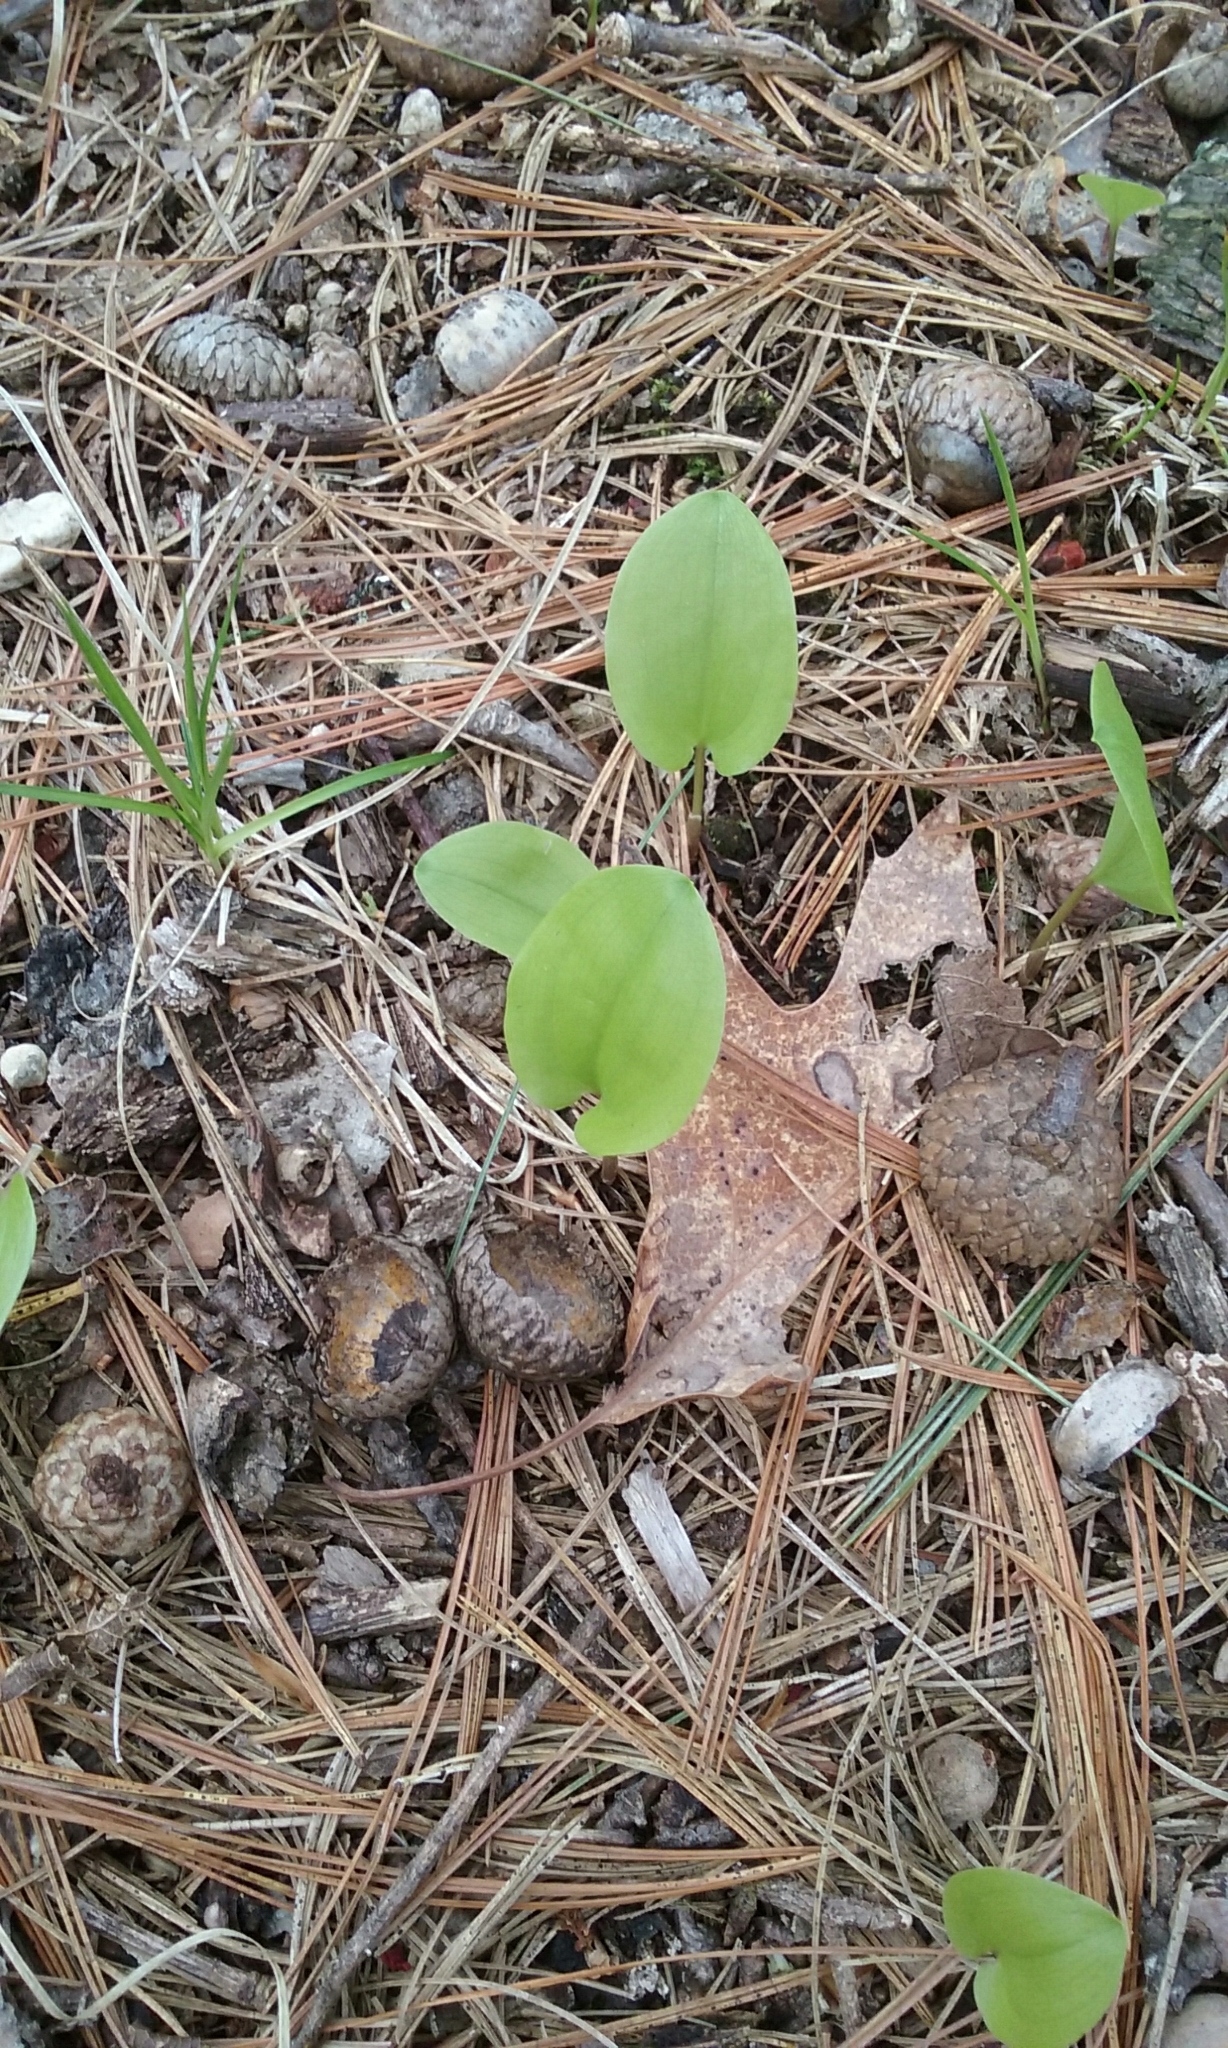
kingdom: Plantae
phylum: Tracheophyta
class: Liliopsida
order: Asparagales
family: Asparagaceae
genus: Maianthemum
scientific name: Maianthemum canadense
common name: False lily-of-the-valley
